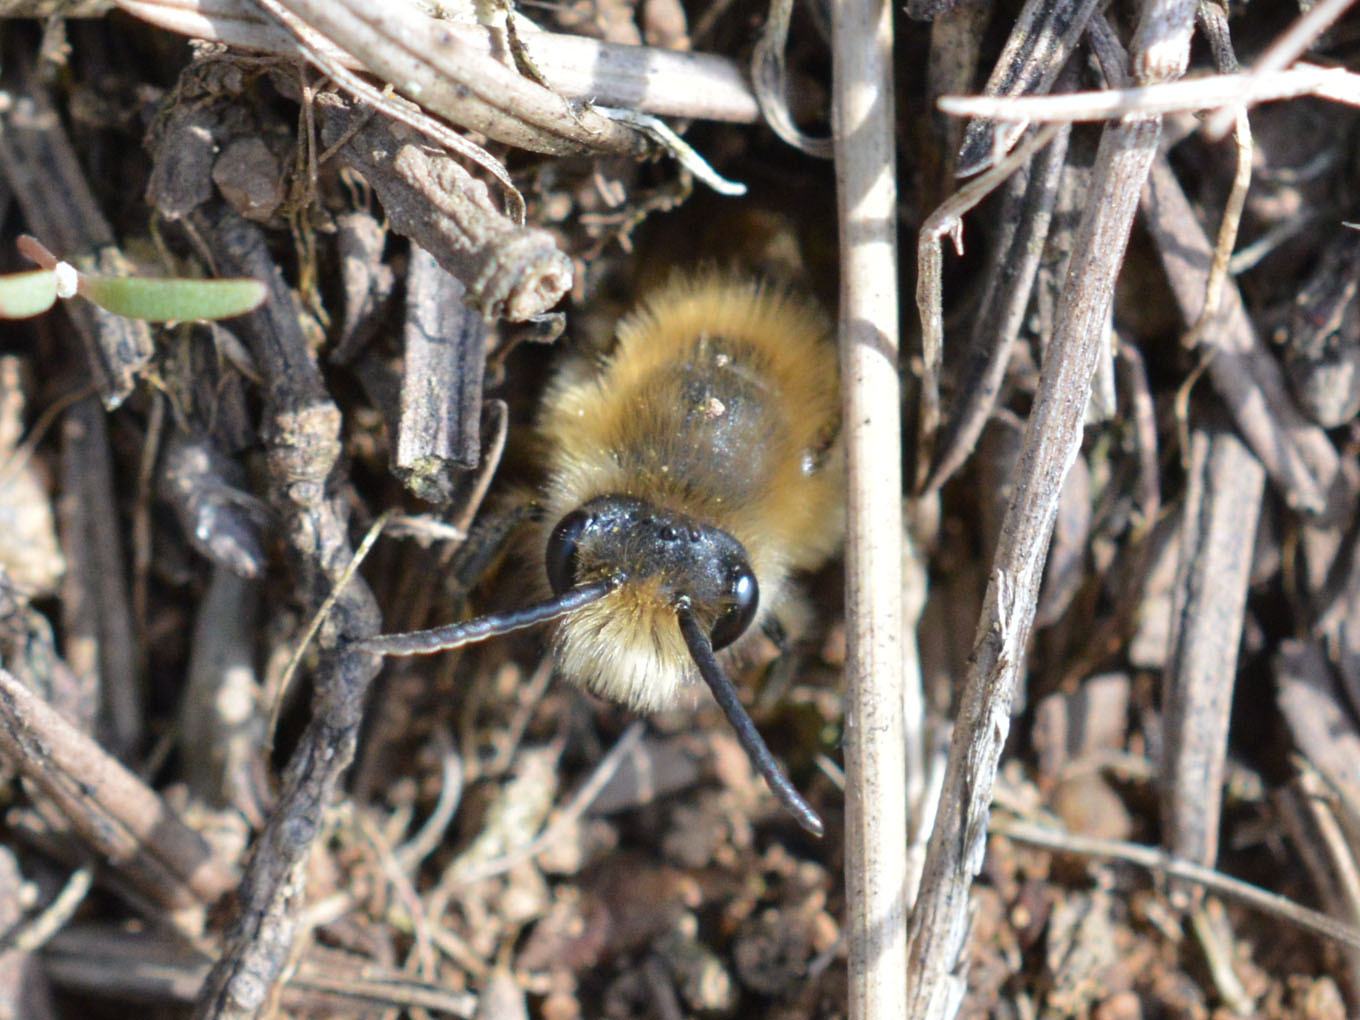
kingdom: Animalia
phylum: Arthropoda
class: Insecta
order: Hymenoptera
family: Colletidae
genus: Colletes
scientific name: Colletes cunicularius
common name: Early colletes
